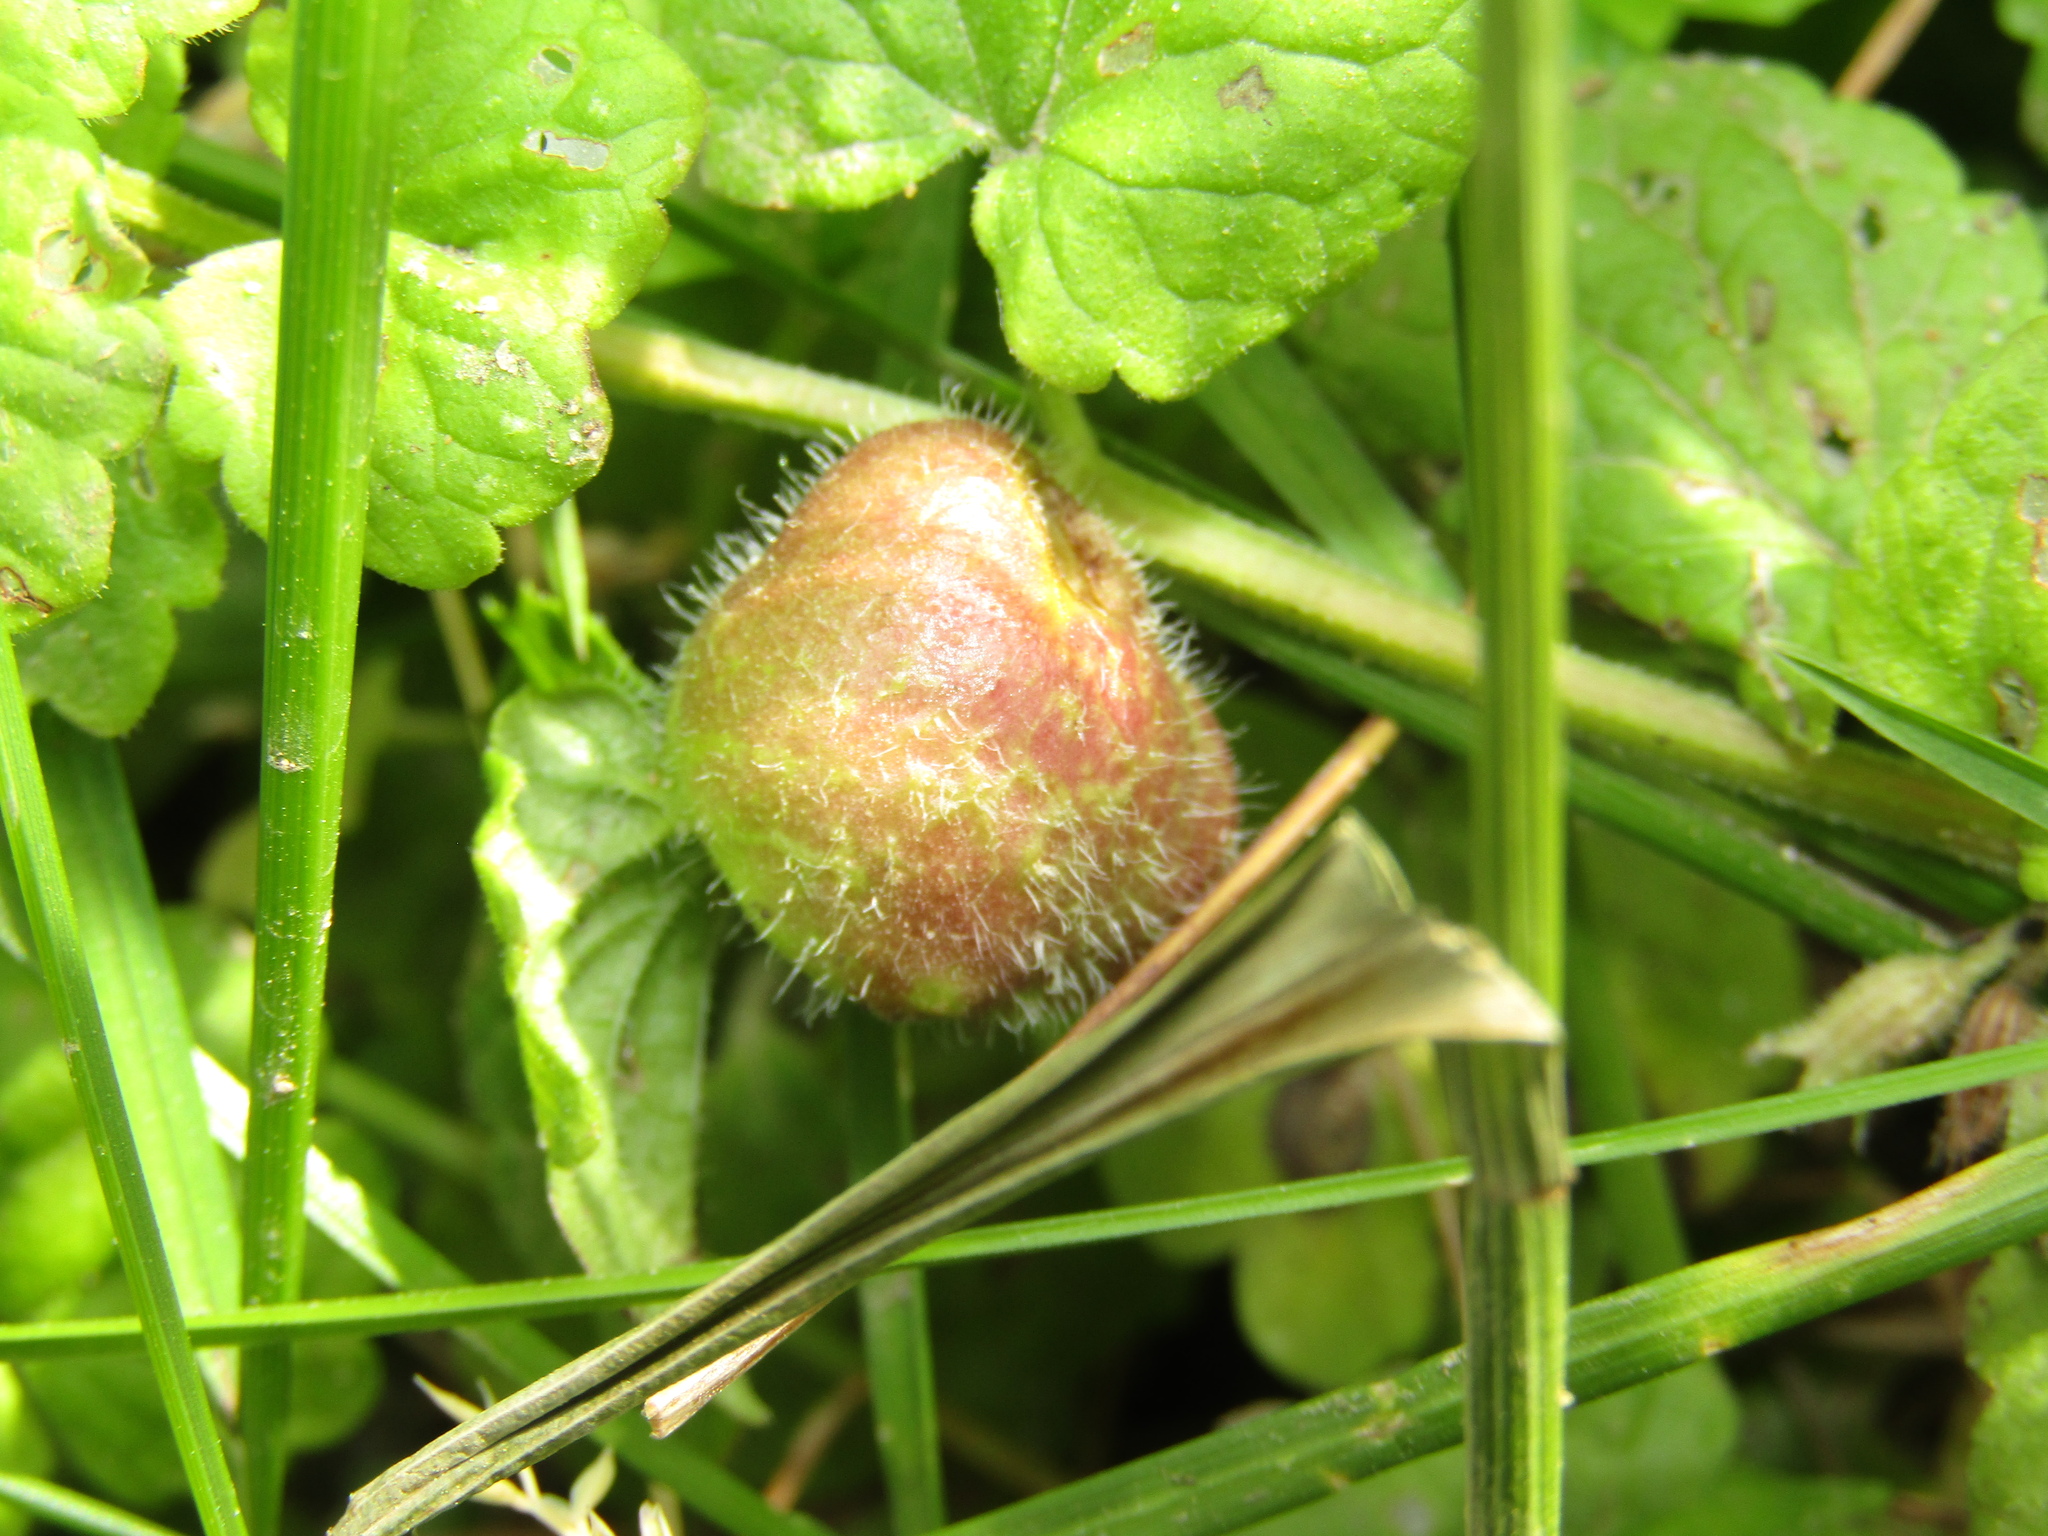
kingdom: Animalia
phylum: Arthropoda
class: Insecta
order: Hymenoptera
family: Cynipidae
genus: Liposthenes
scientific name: Liposthenes glechomae
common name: Gall wasp
